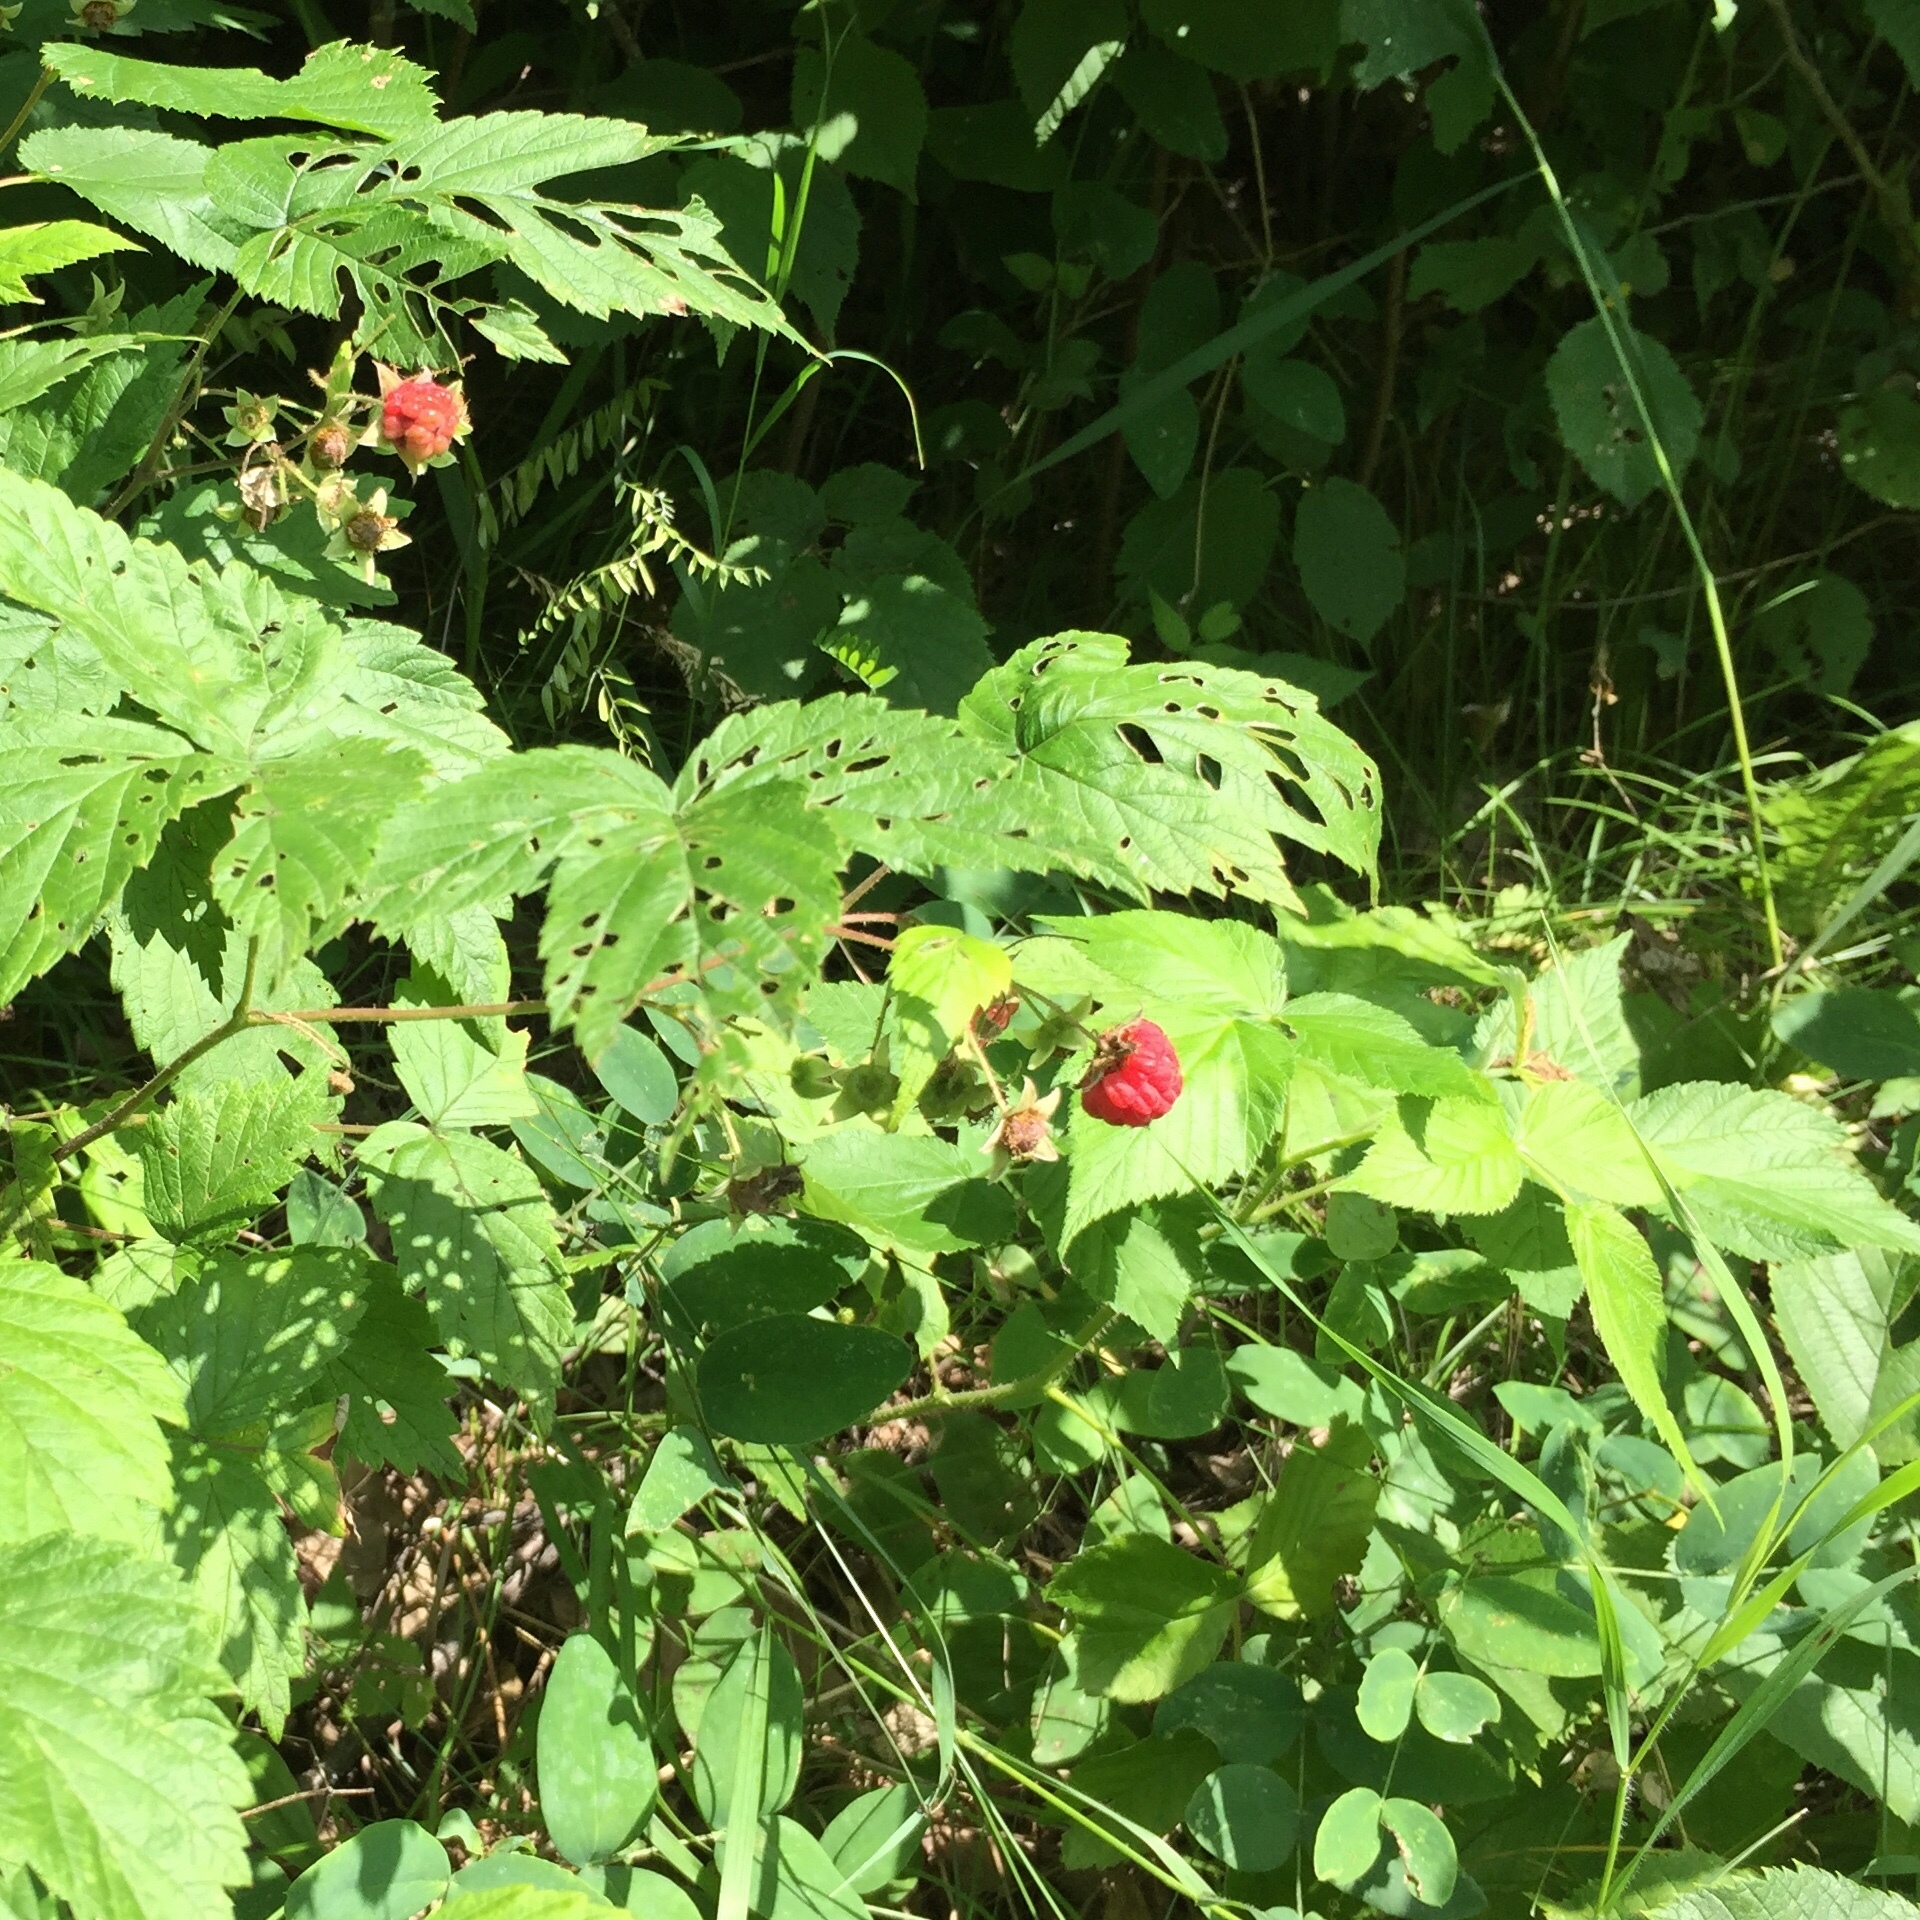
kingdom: Plantae
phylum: Tracheophyta
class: Magnoliopsida
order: Rosales
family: Rosaceae
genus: Rubus
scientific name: Rubus idaeus
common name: Raspberry
